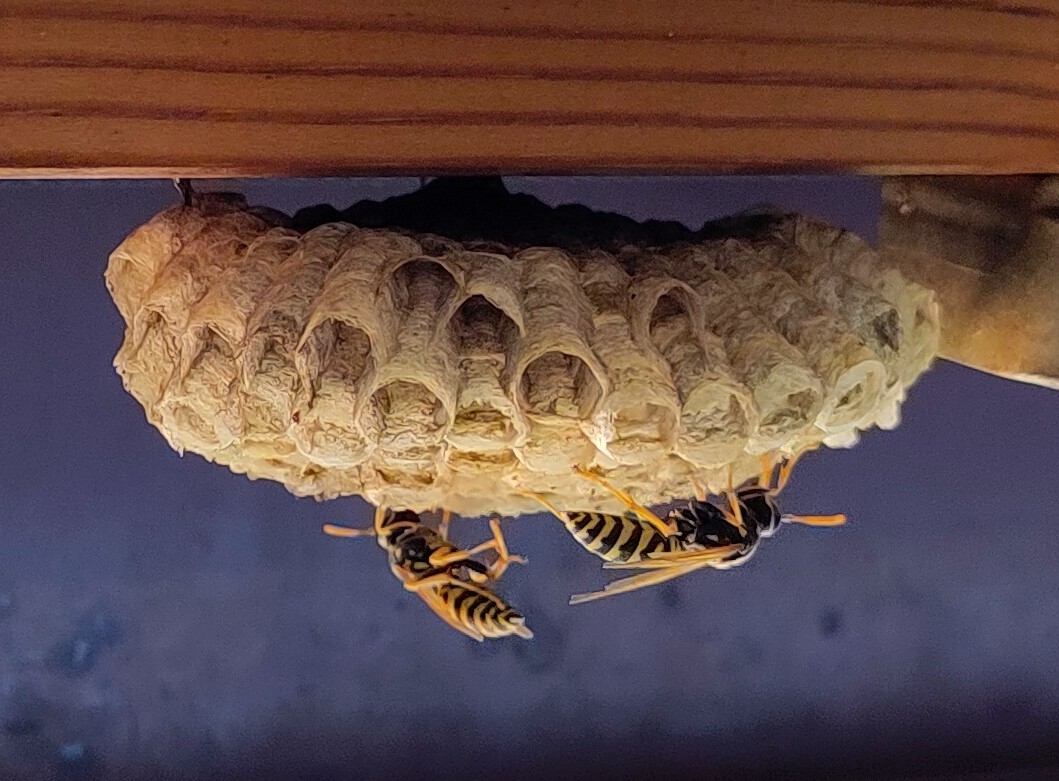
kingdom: Animalia
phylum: Arthropoda
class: Insecta
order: Hymenoptera
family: Eumenidae
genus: Polistes
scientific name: Polistes dominula
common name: Paper wasp
